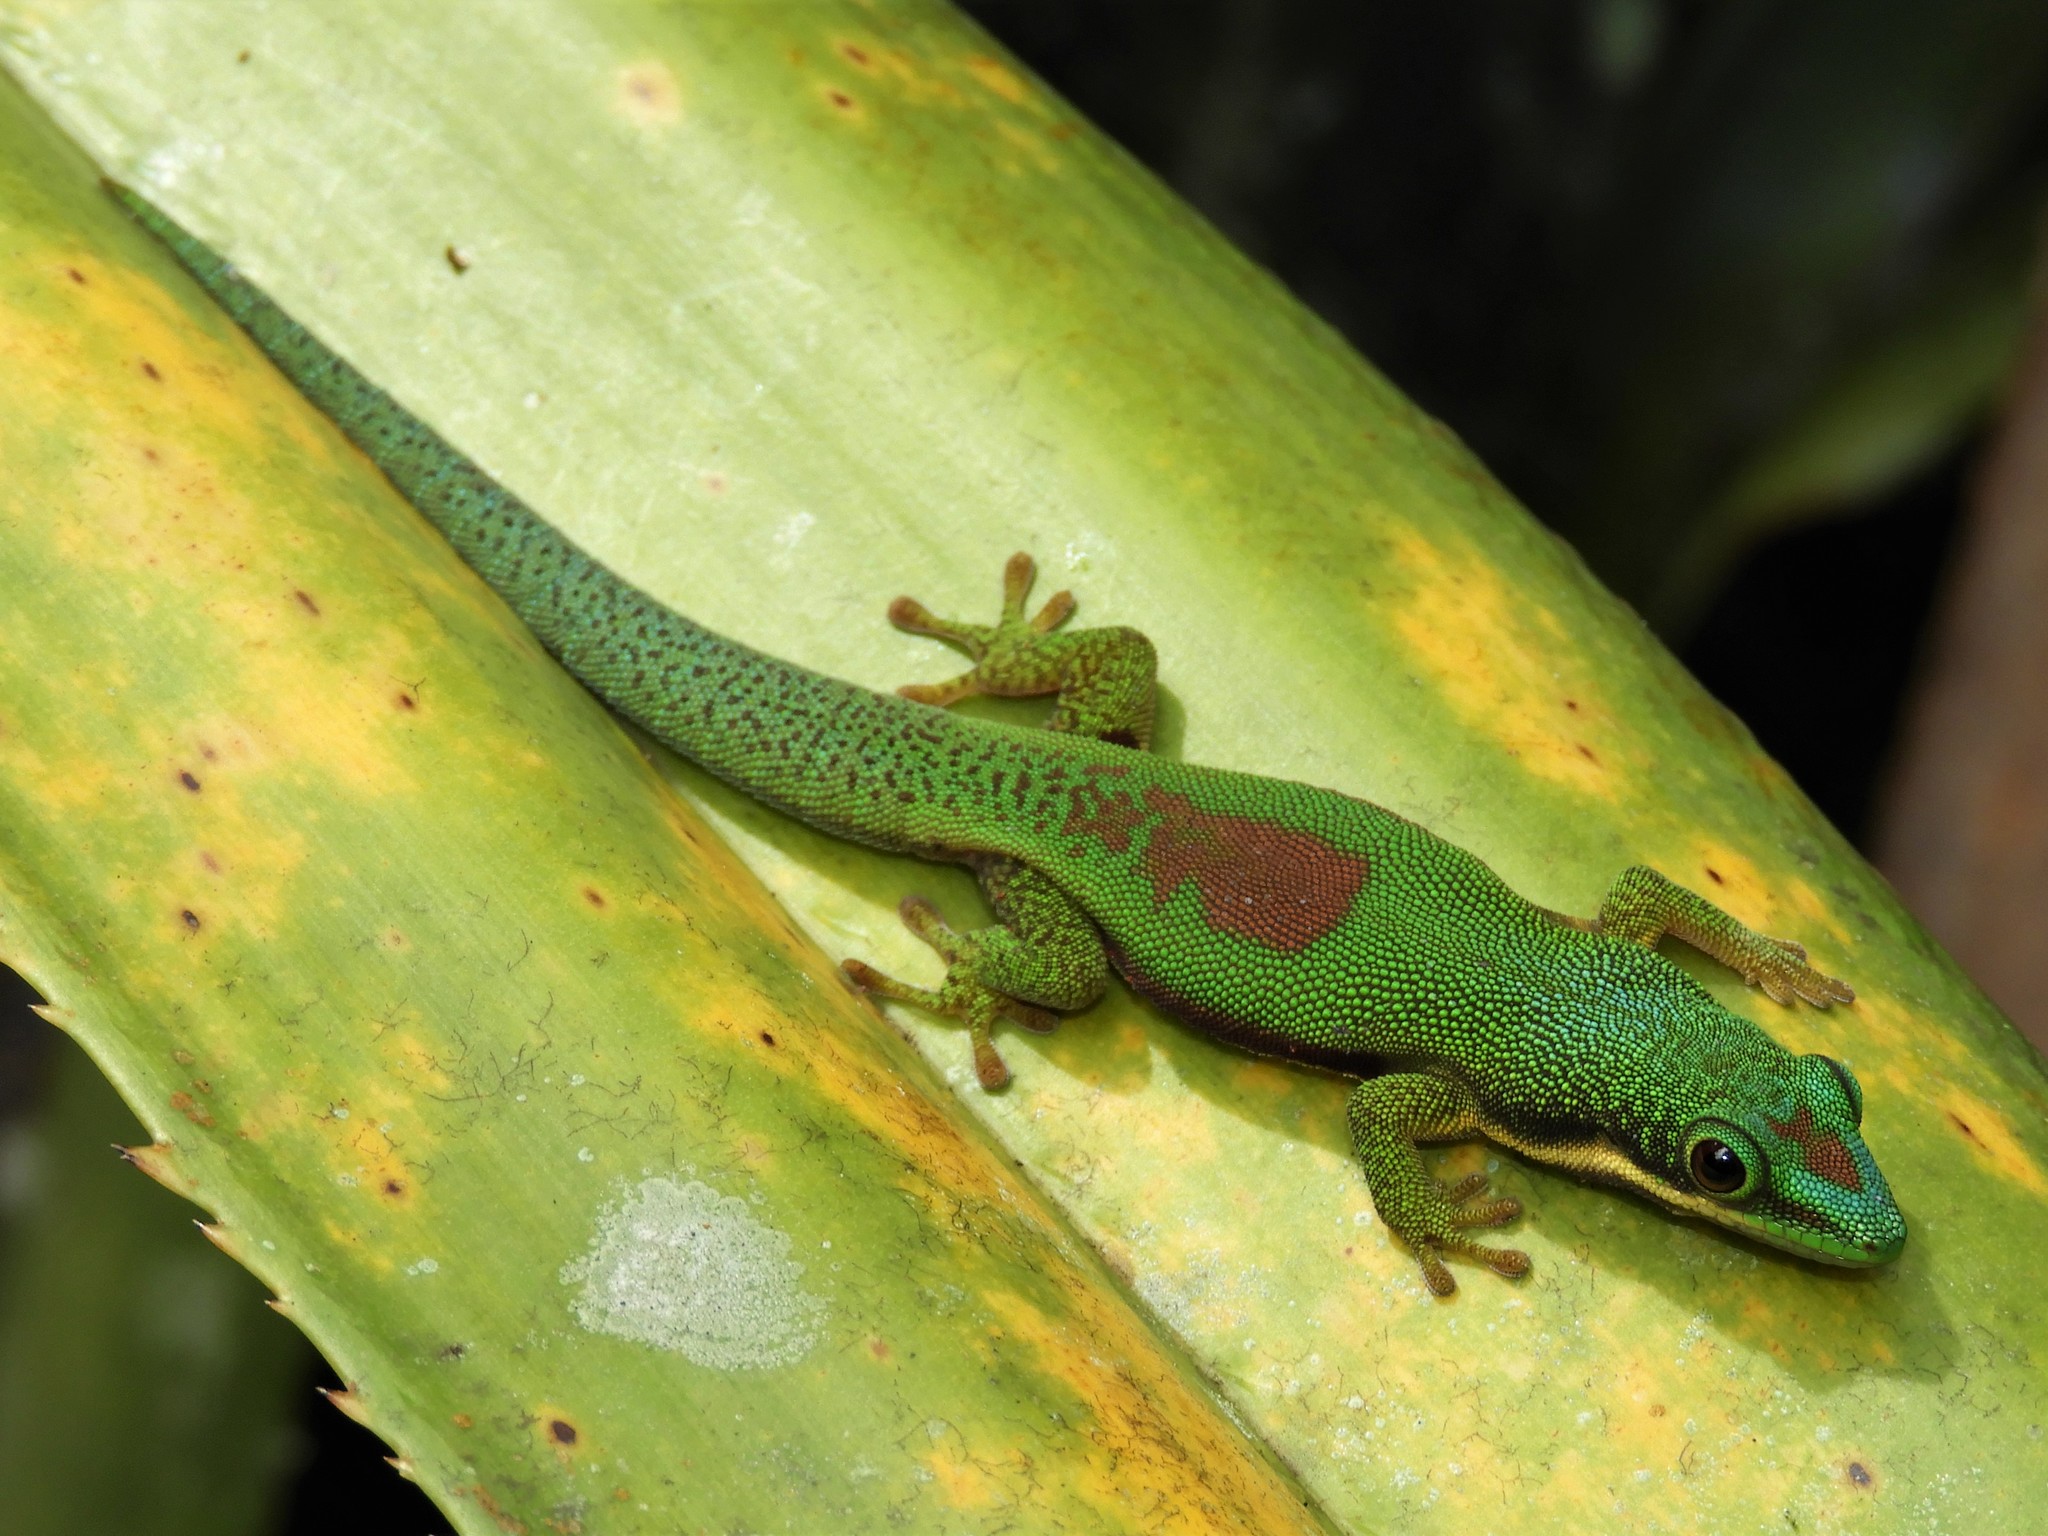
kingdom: Animalia
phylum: Chordata
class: Squamata
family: Gekkonidae
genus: Phelsuma
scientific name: Phelsuma lineata
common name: Lined day gecko
